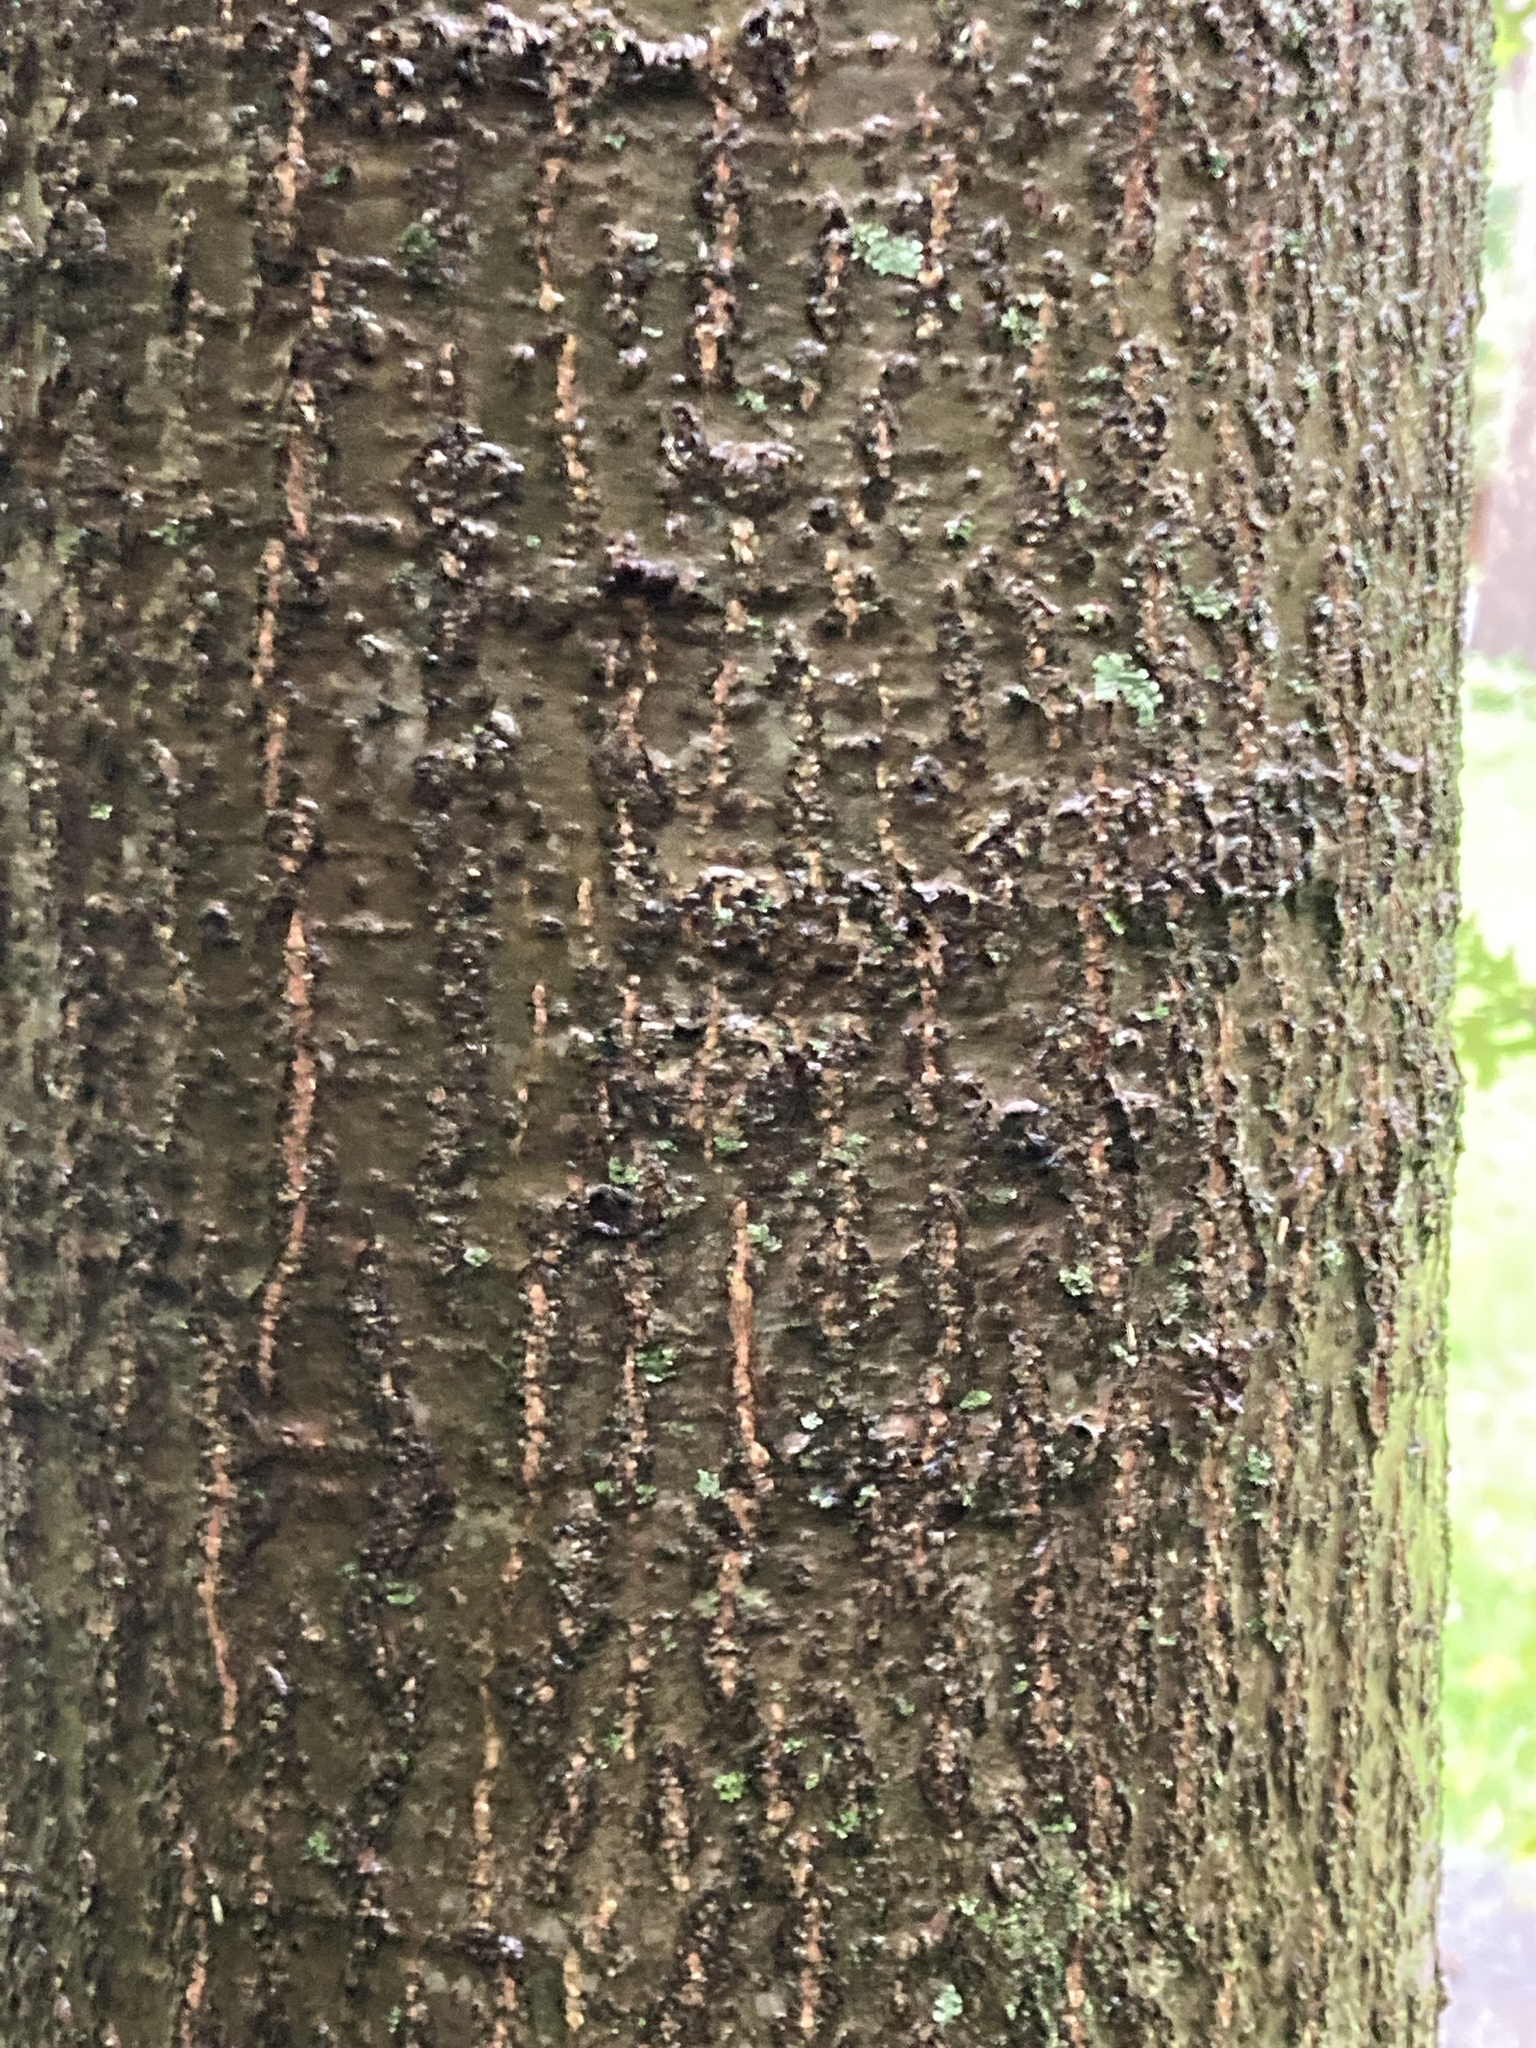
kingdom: Plantae
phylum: Tracheophyta
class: Magnoliopsida
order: Fagales
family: Fagaceae
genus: Quercus
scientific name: Quercus palustris
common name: Pin oak
